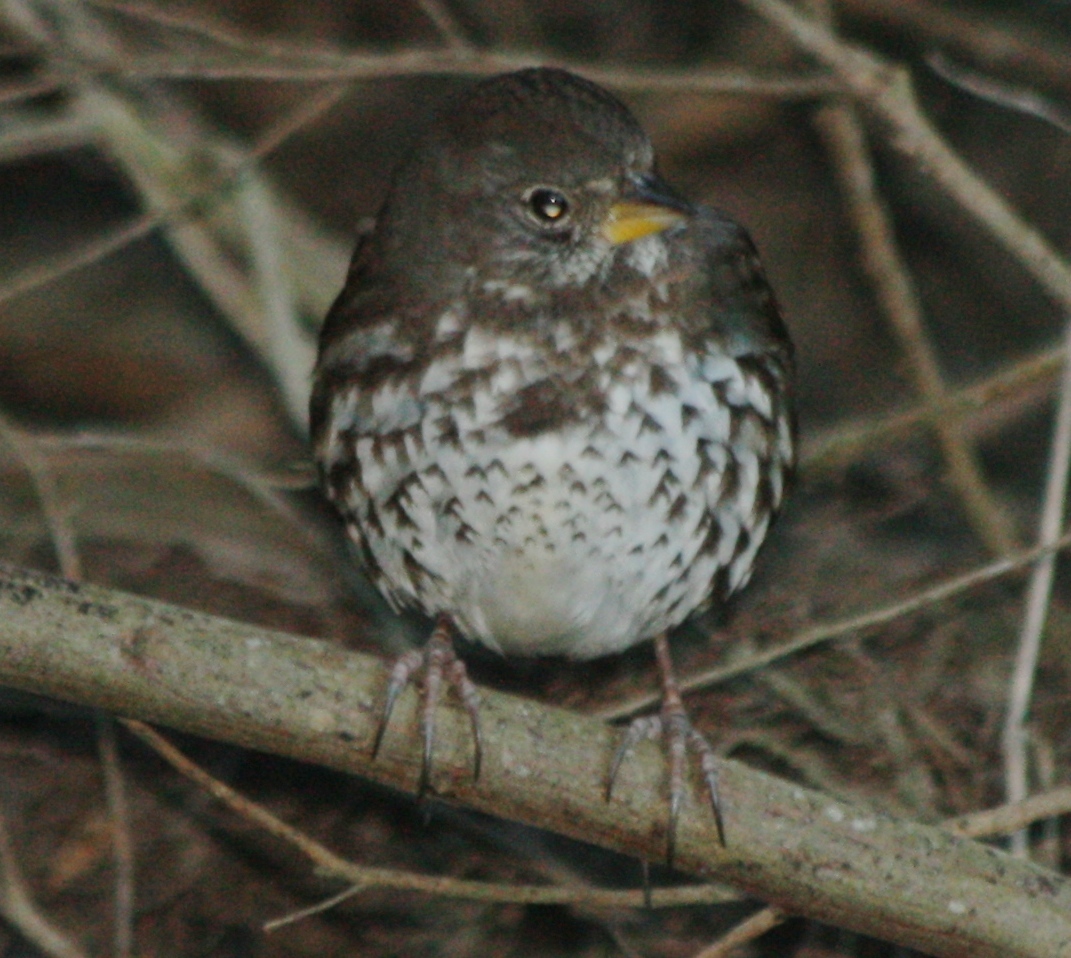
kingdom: Animalia
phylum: Chordata
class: Aves
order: Passeriformes
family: Passerellidae
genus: Passerella
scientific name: Passerella iliaca
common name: Fox sparrow
